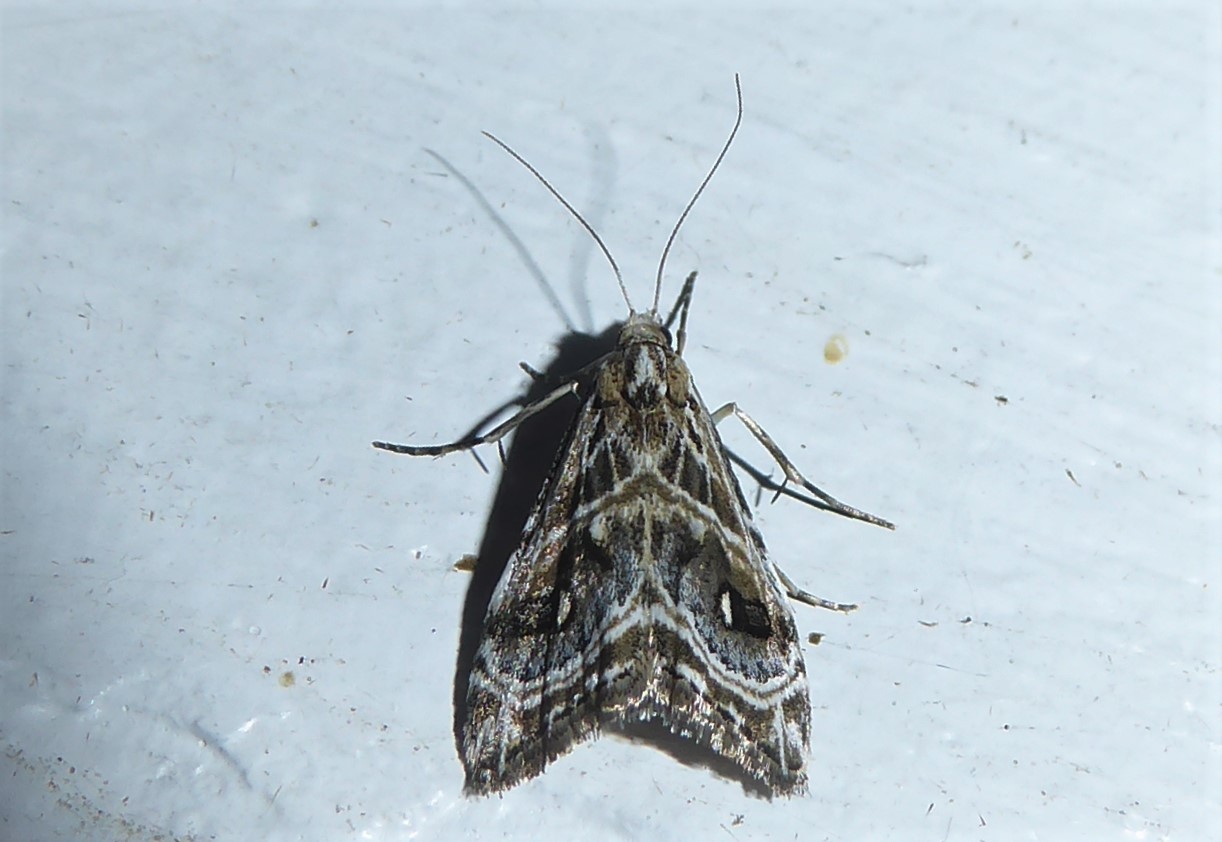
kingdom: Animalia
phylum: Arthropoda
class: Insecta
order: Lepidoptera
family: Crambidae
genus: Gadira
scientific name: Gadira acerella
